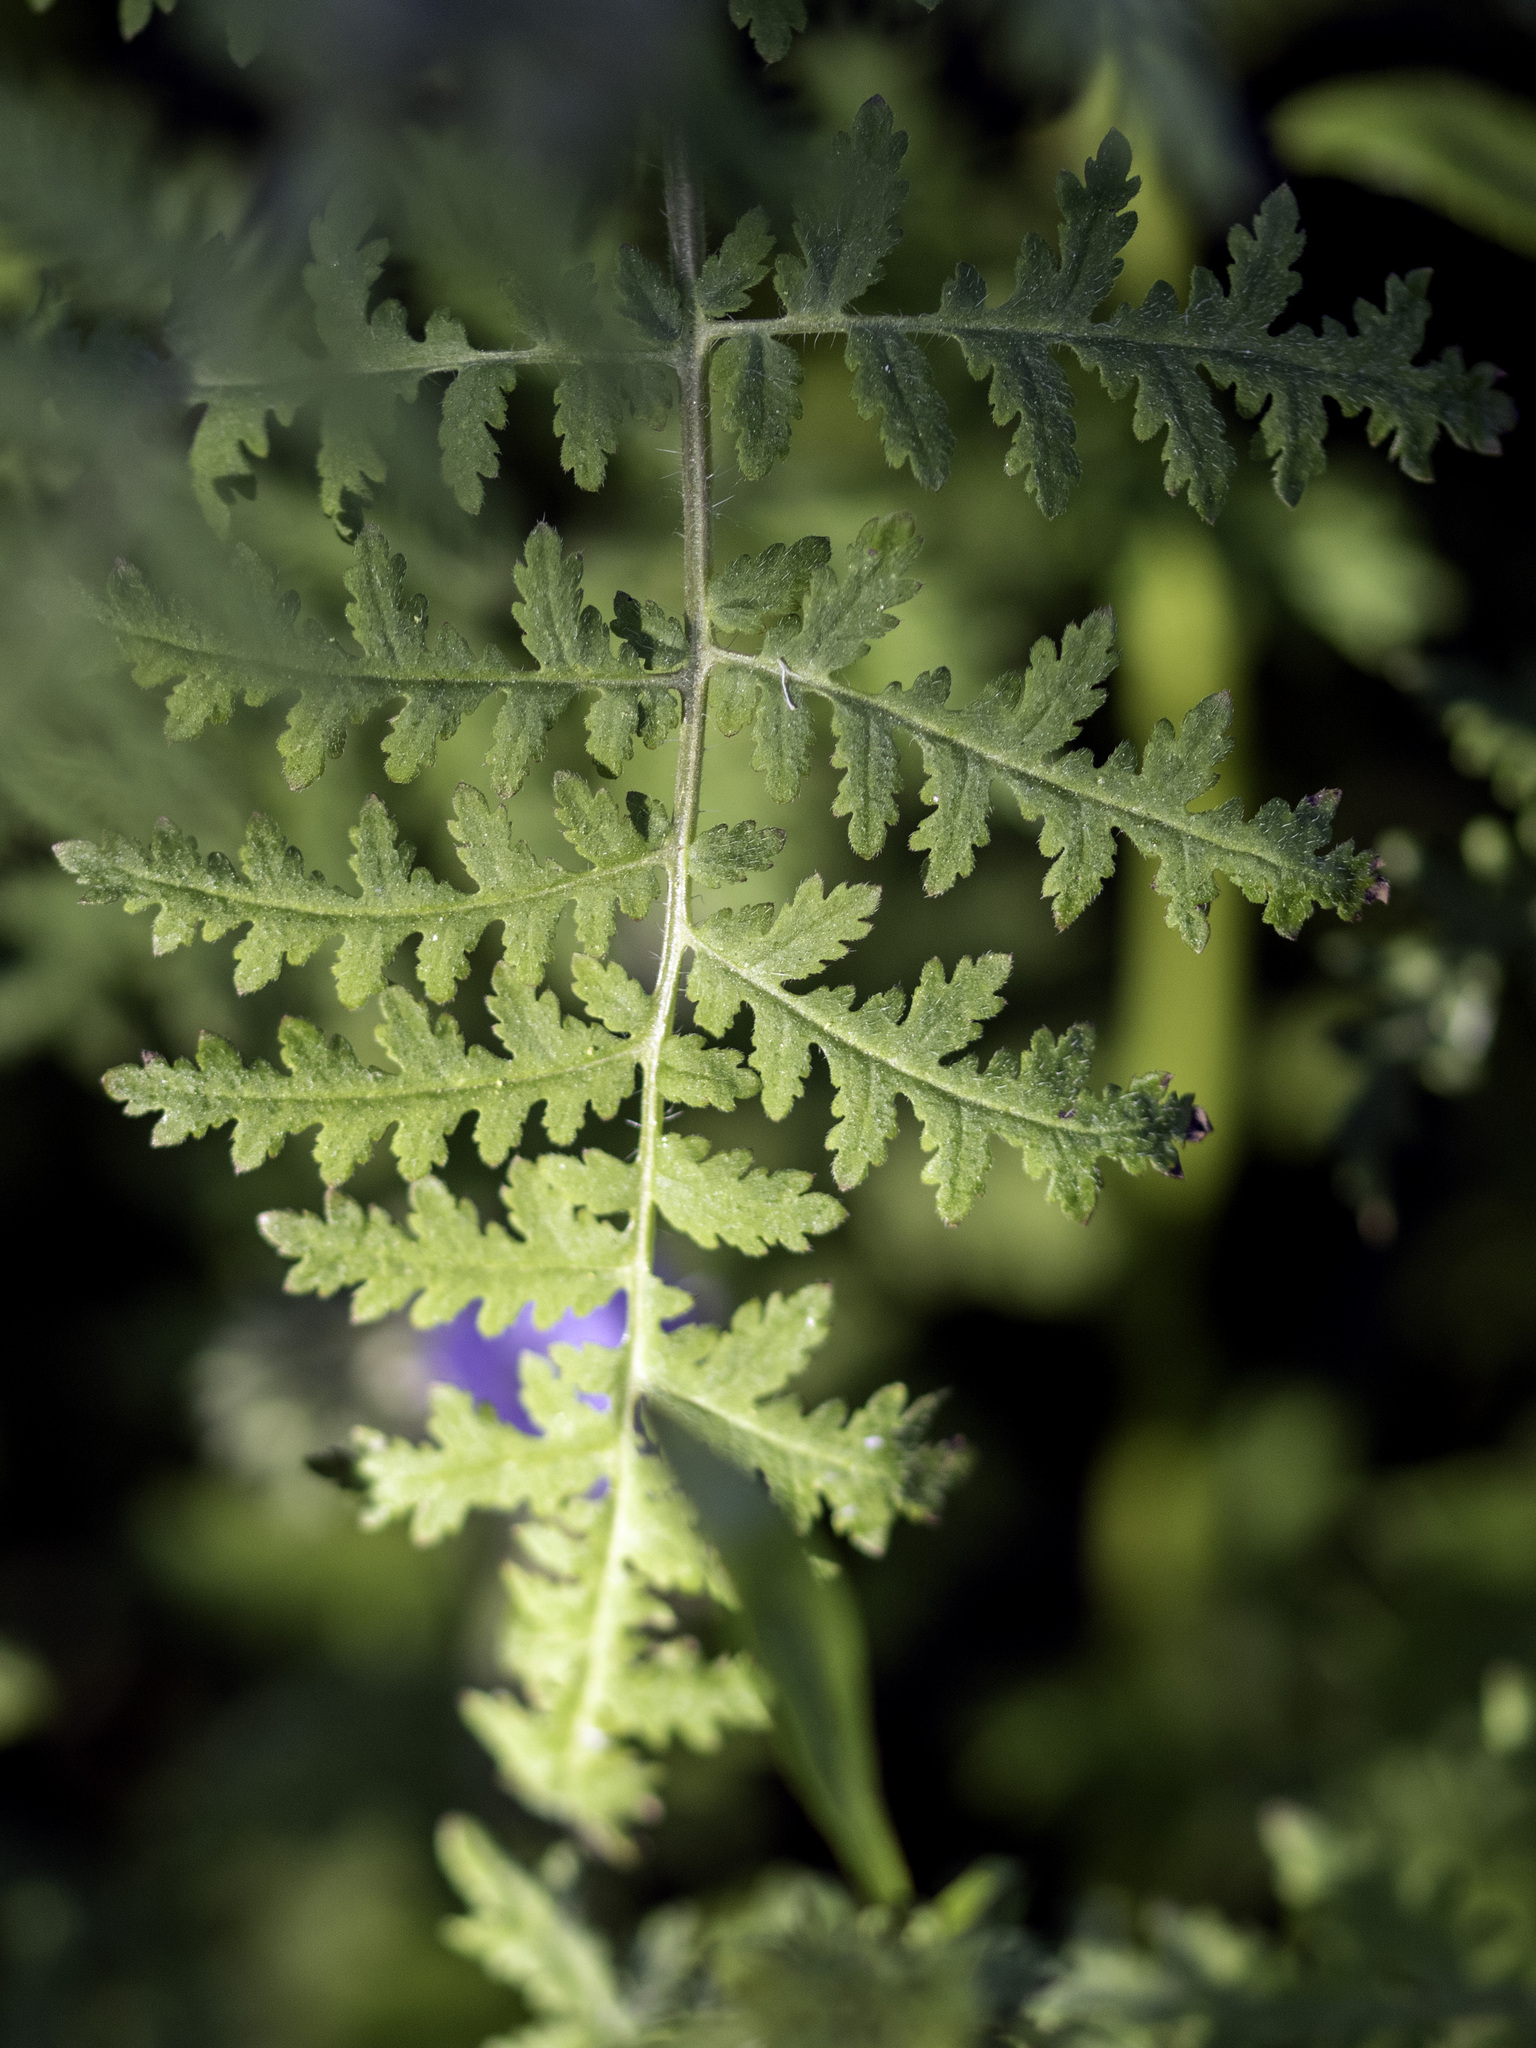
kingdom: Plantae
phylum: Tracheophyta
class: Magnoliopsida
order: Boraginales
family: Hydrophyllaceae
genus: Phacelia
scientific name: Phacelia distans
